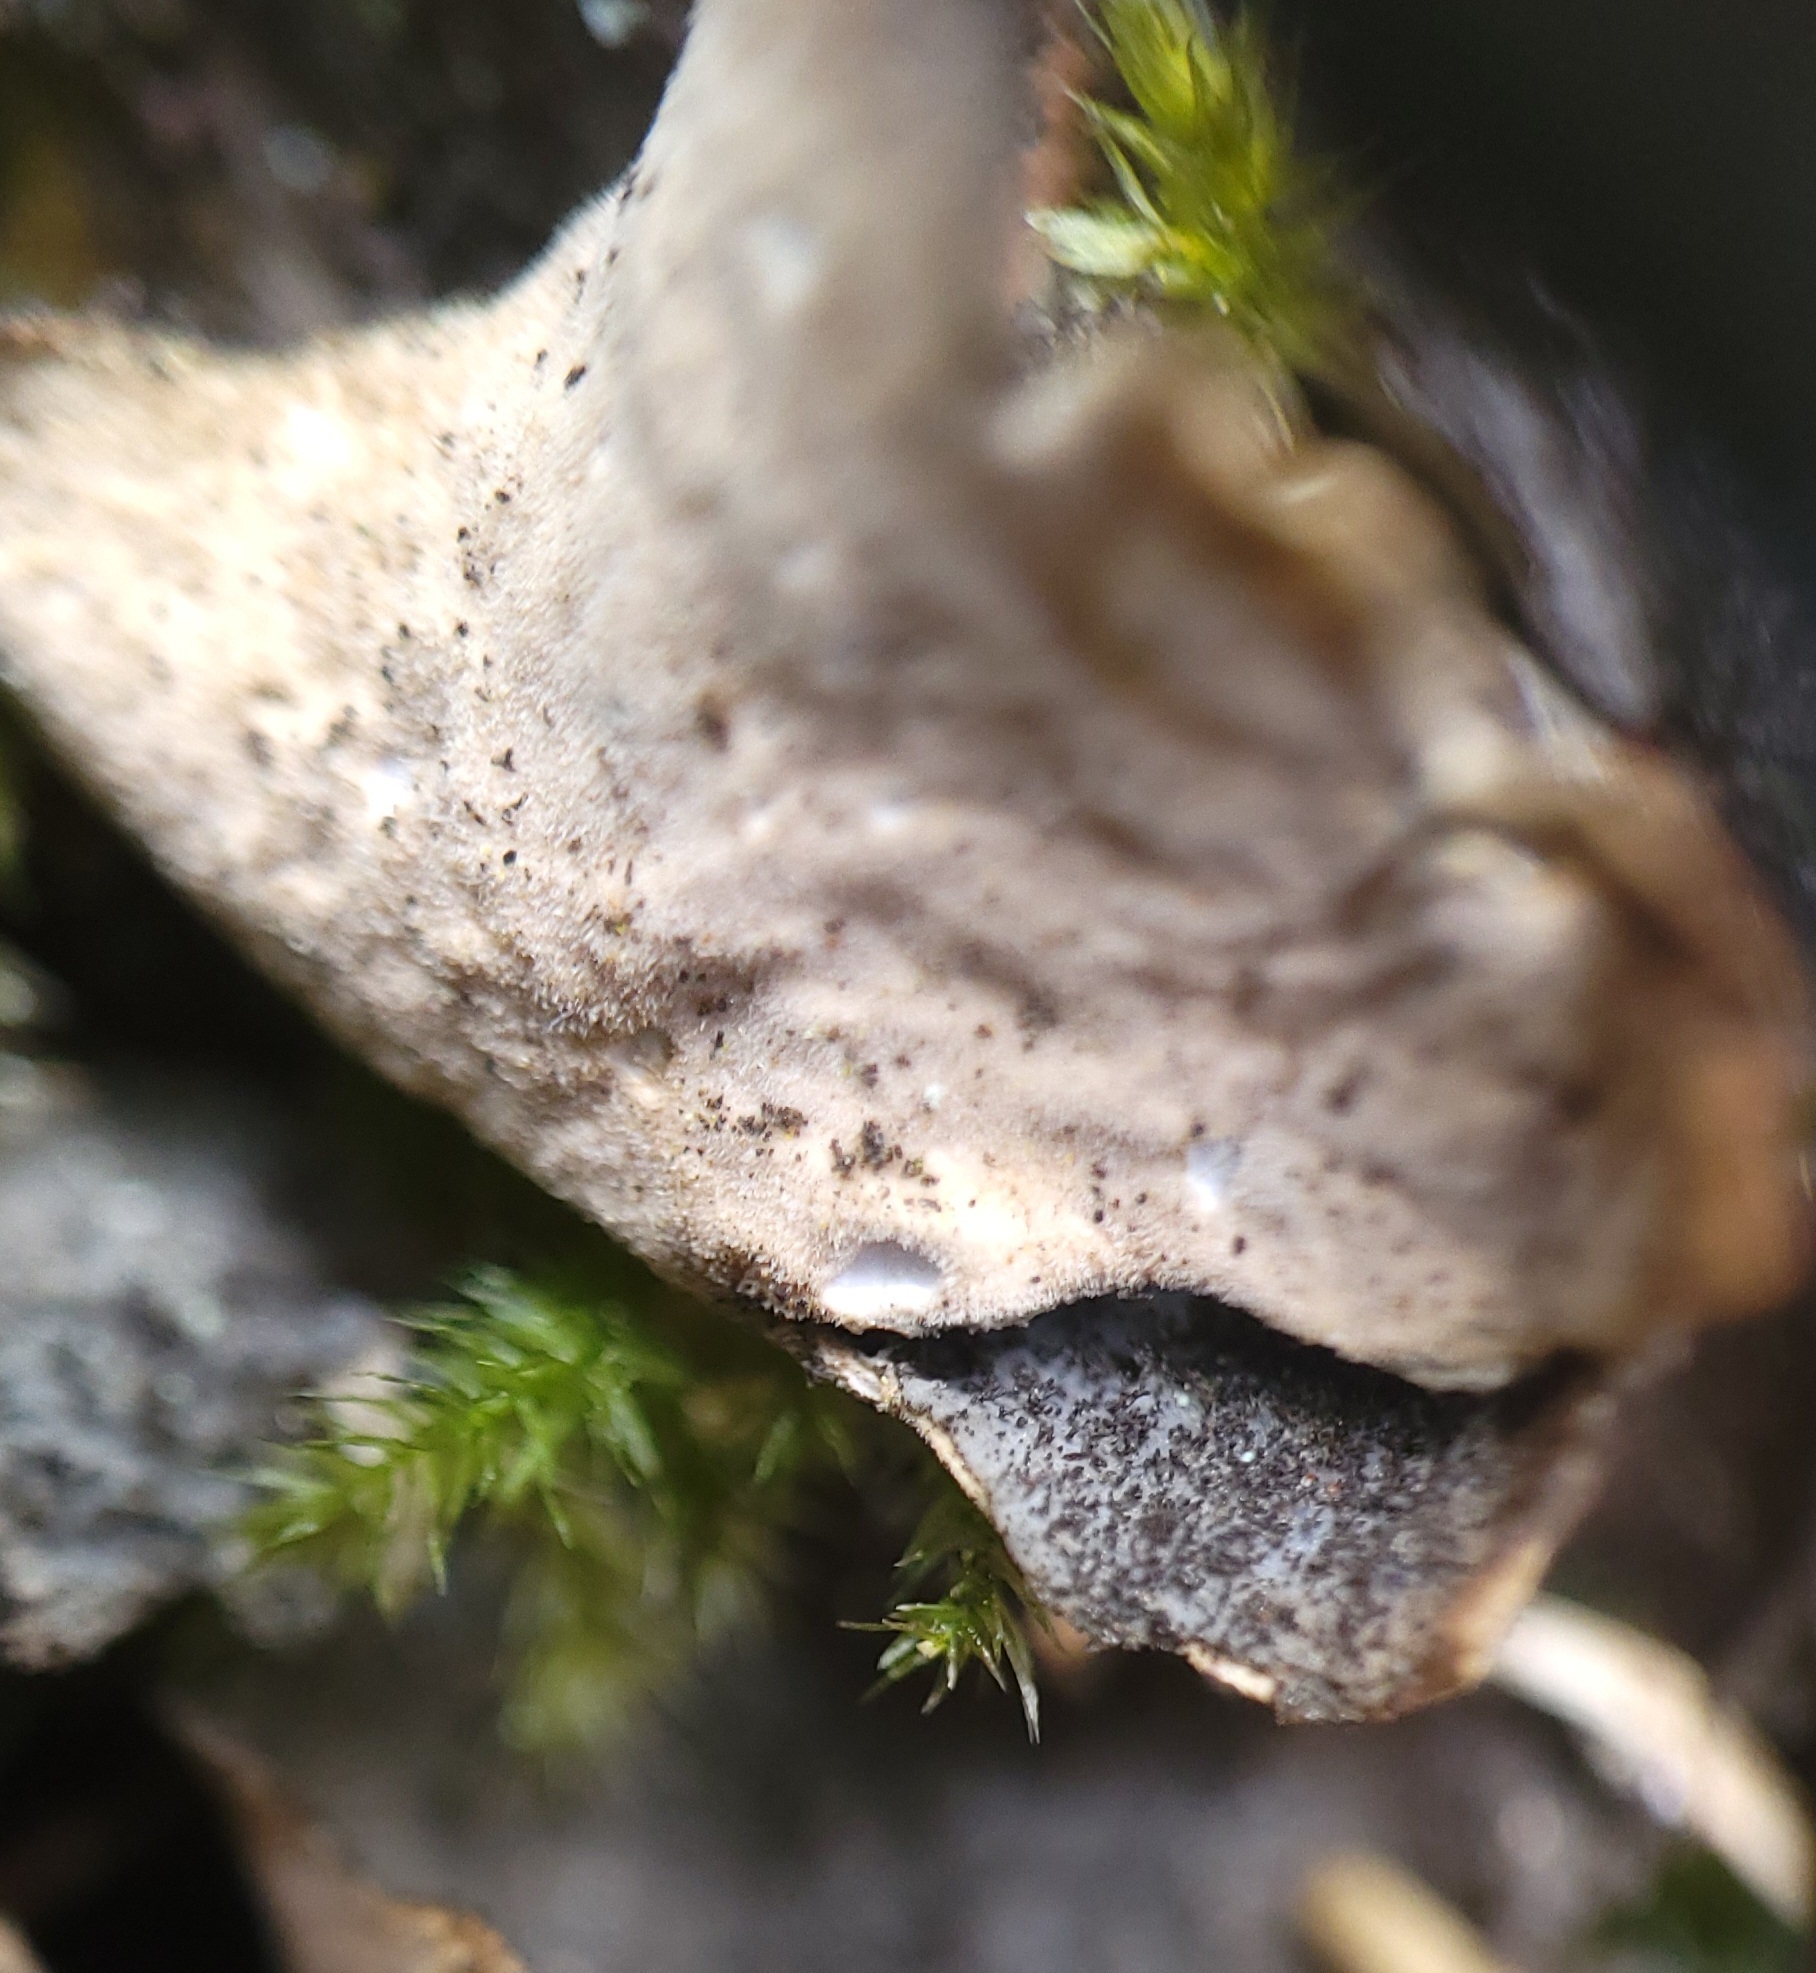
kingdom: Fungi
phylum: Ascomycota
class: Lecanoromycetes
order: Peltigerales
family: Lobariaceae
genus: Sticta
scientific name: Sticta
